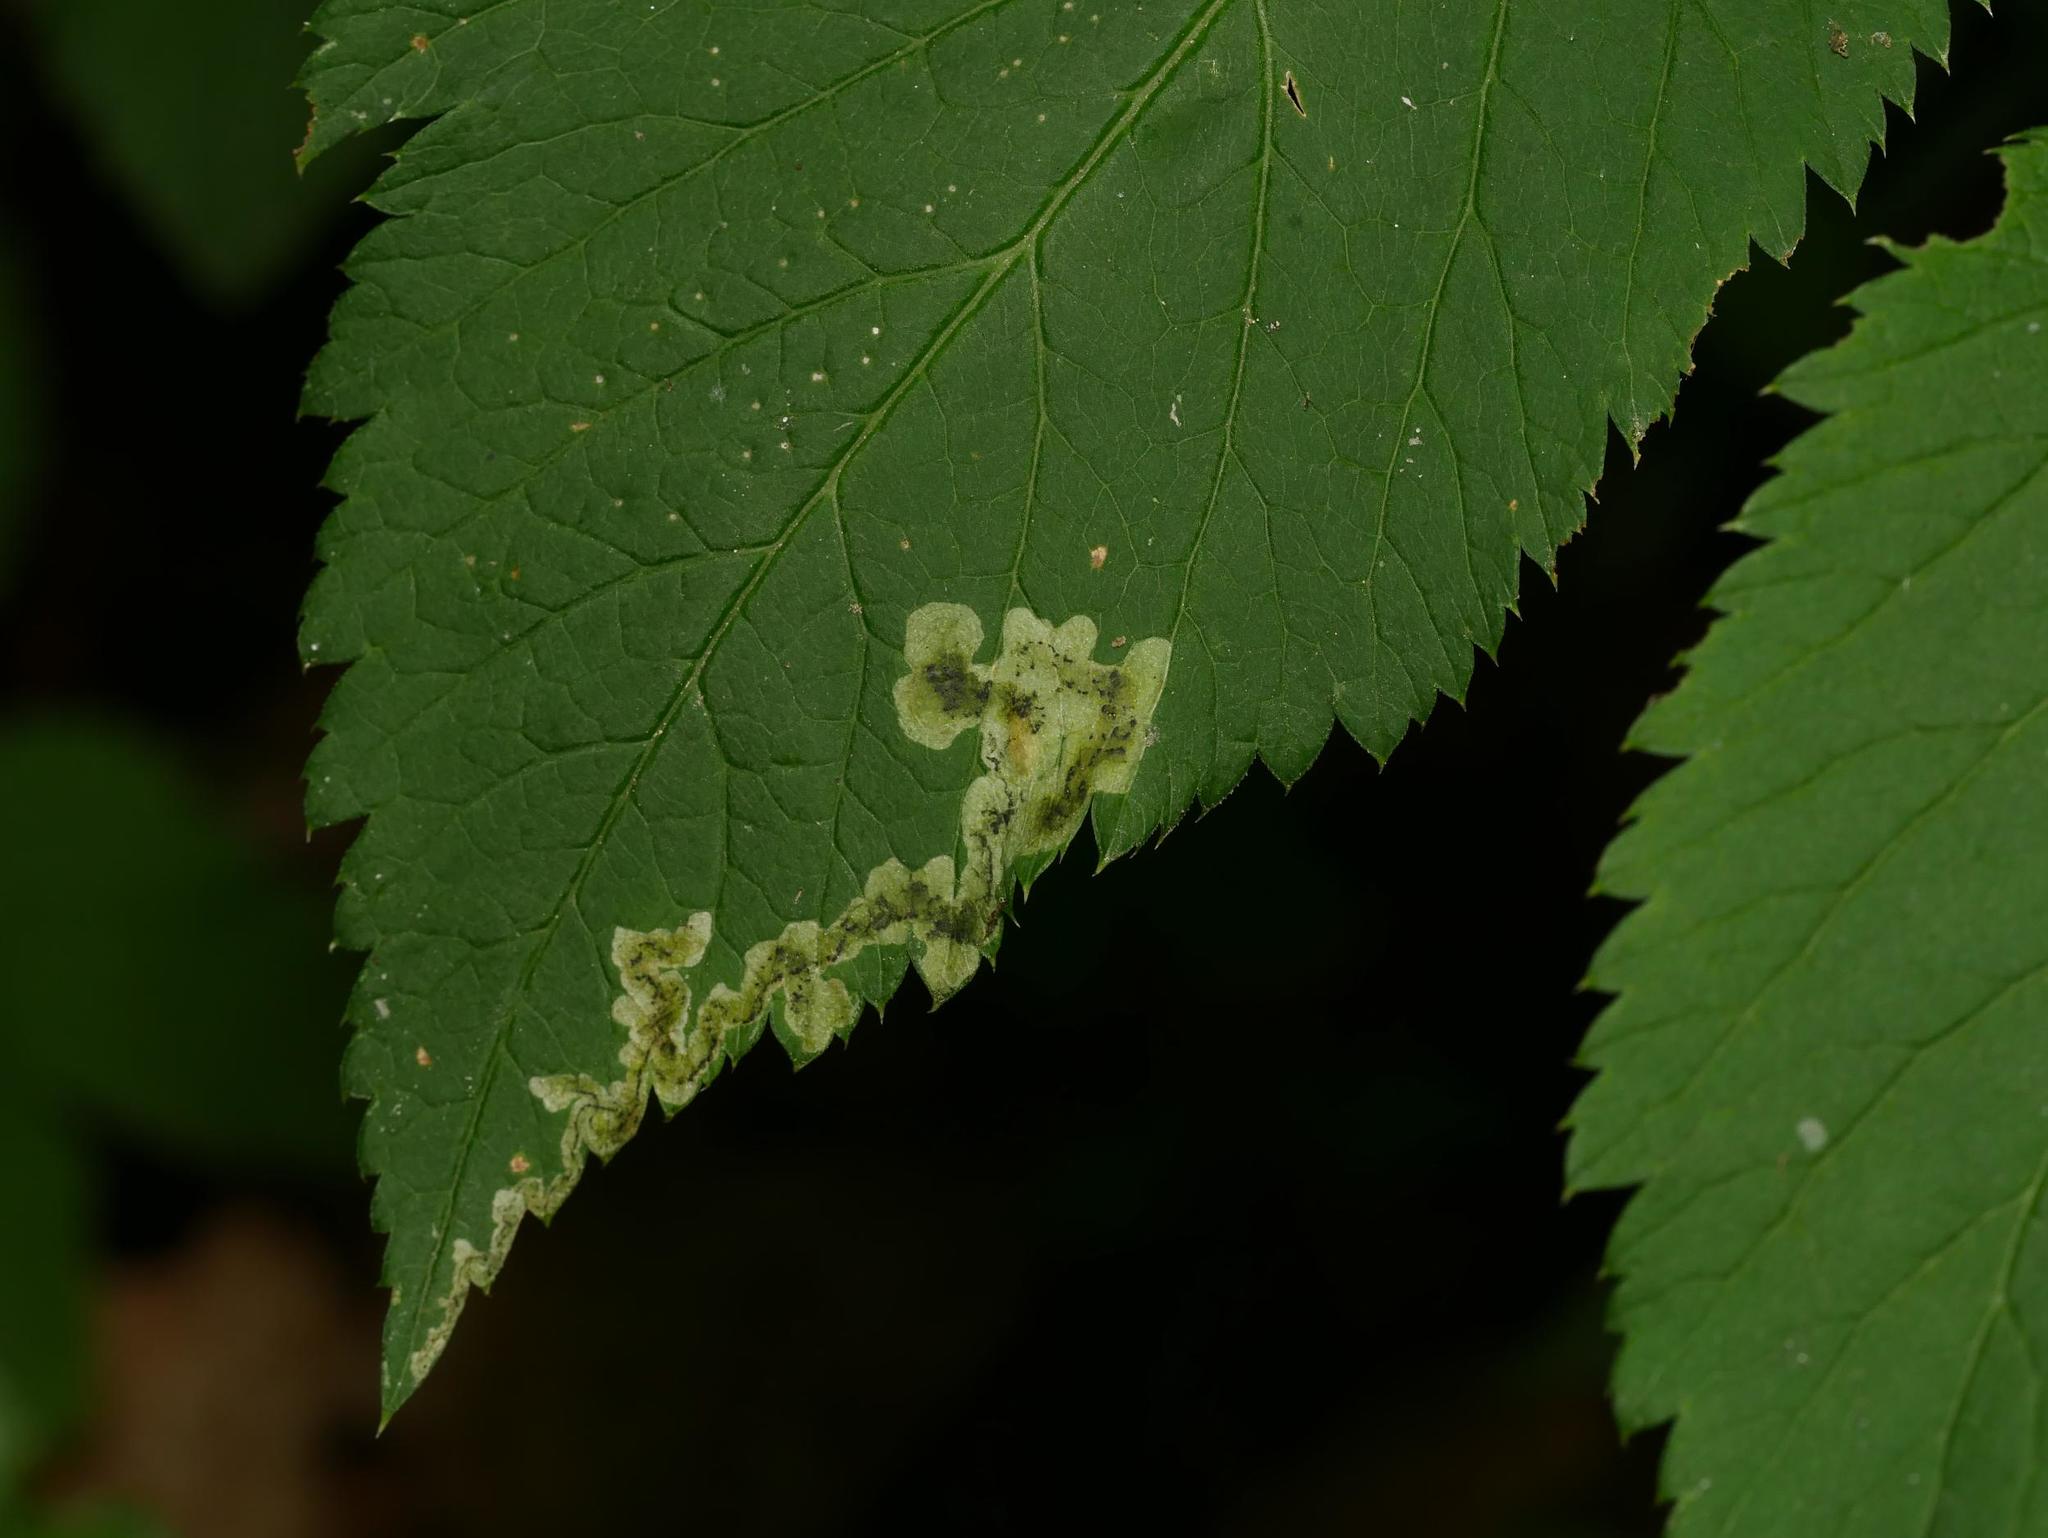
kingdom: Animalia
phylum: Arthropoda
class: Insecta
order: Diptera
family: Agromyzidae
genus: Phytomyza
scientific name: Phytomyza obscurella
